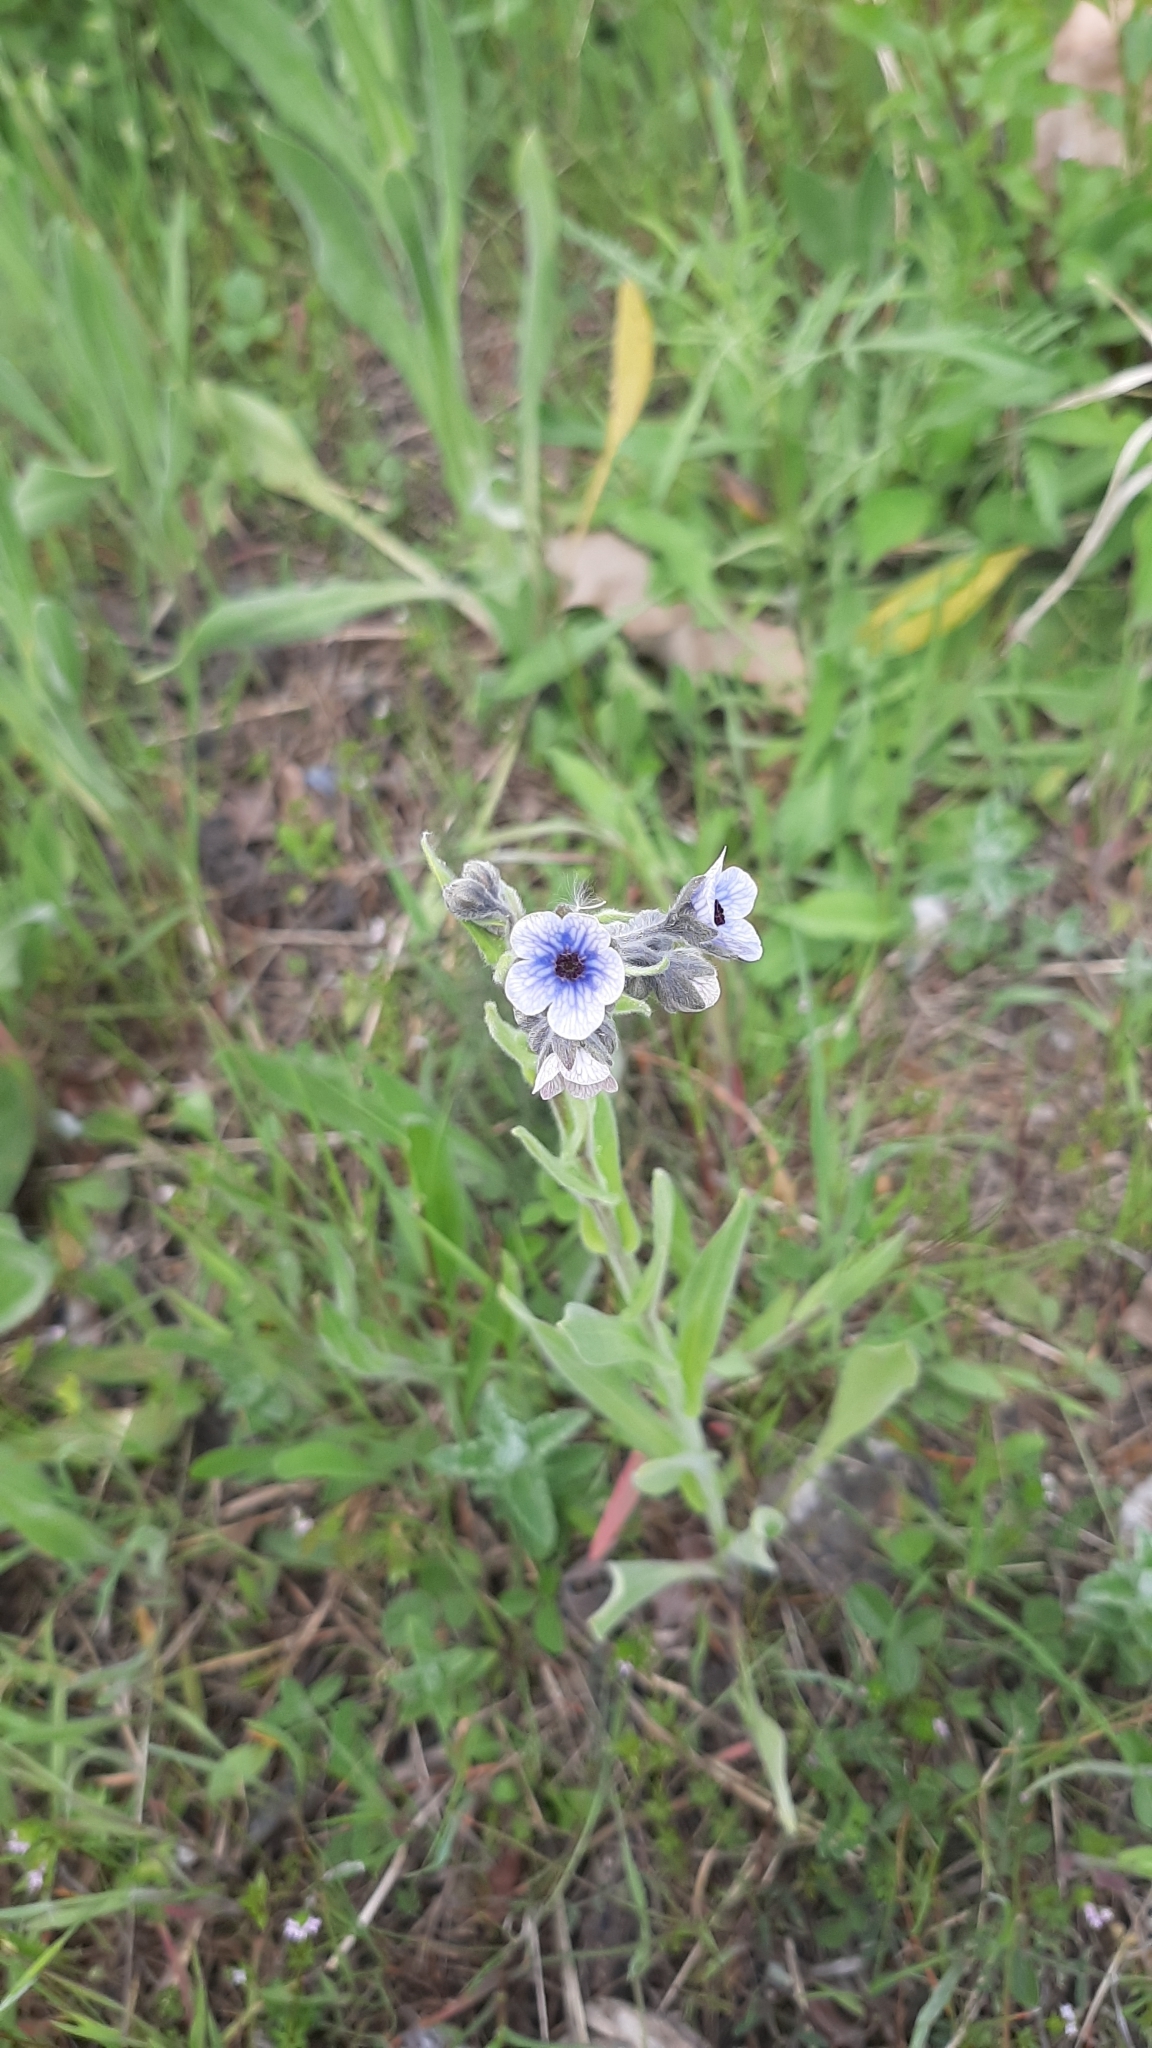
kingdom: Plantae
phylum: Tracheophyta
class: Magnoliopsida
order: Boraginales
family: Boraginaceae
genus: Cynoglossum
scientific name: Cynoglossum creticum
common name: Blue hound's tongue
